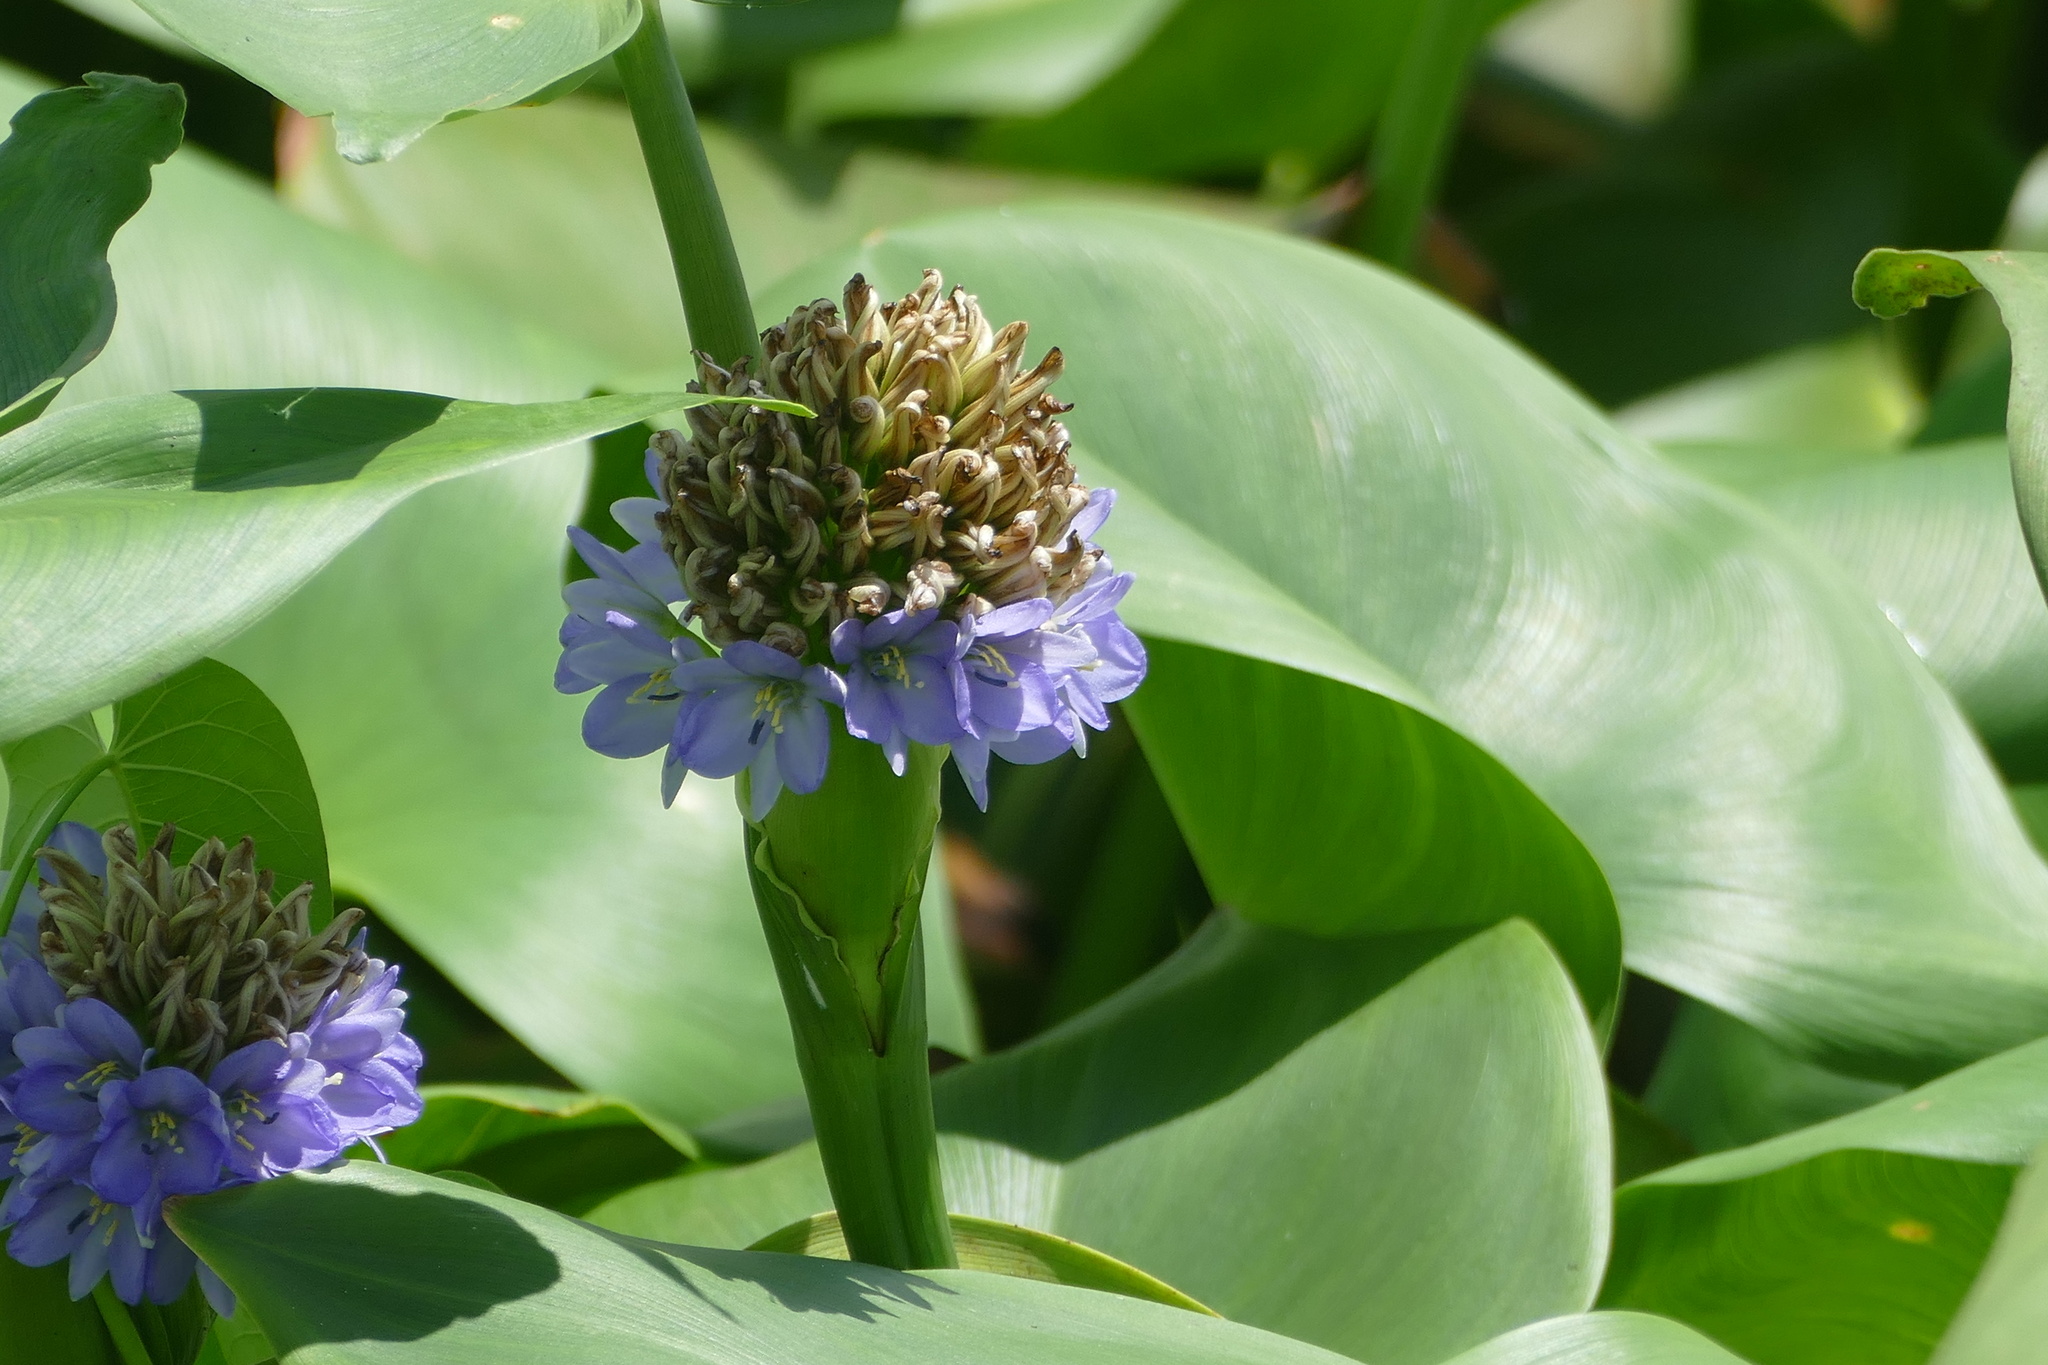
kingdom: Plantae
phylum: Tracheophyta
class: Liliopsida
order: Commelinales
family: Pontederiaceae
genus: Pontederia
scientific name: Pontederia hastata
